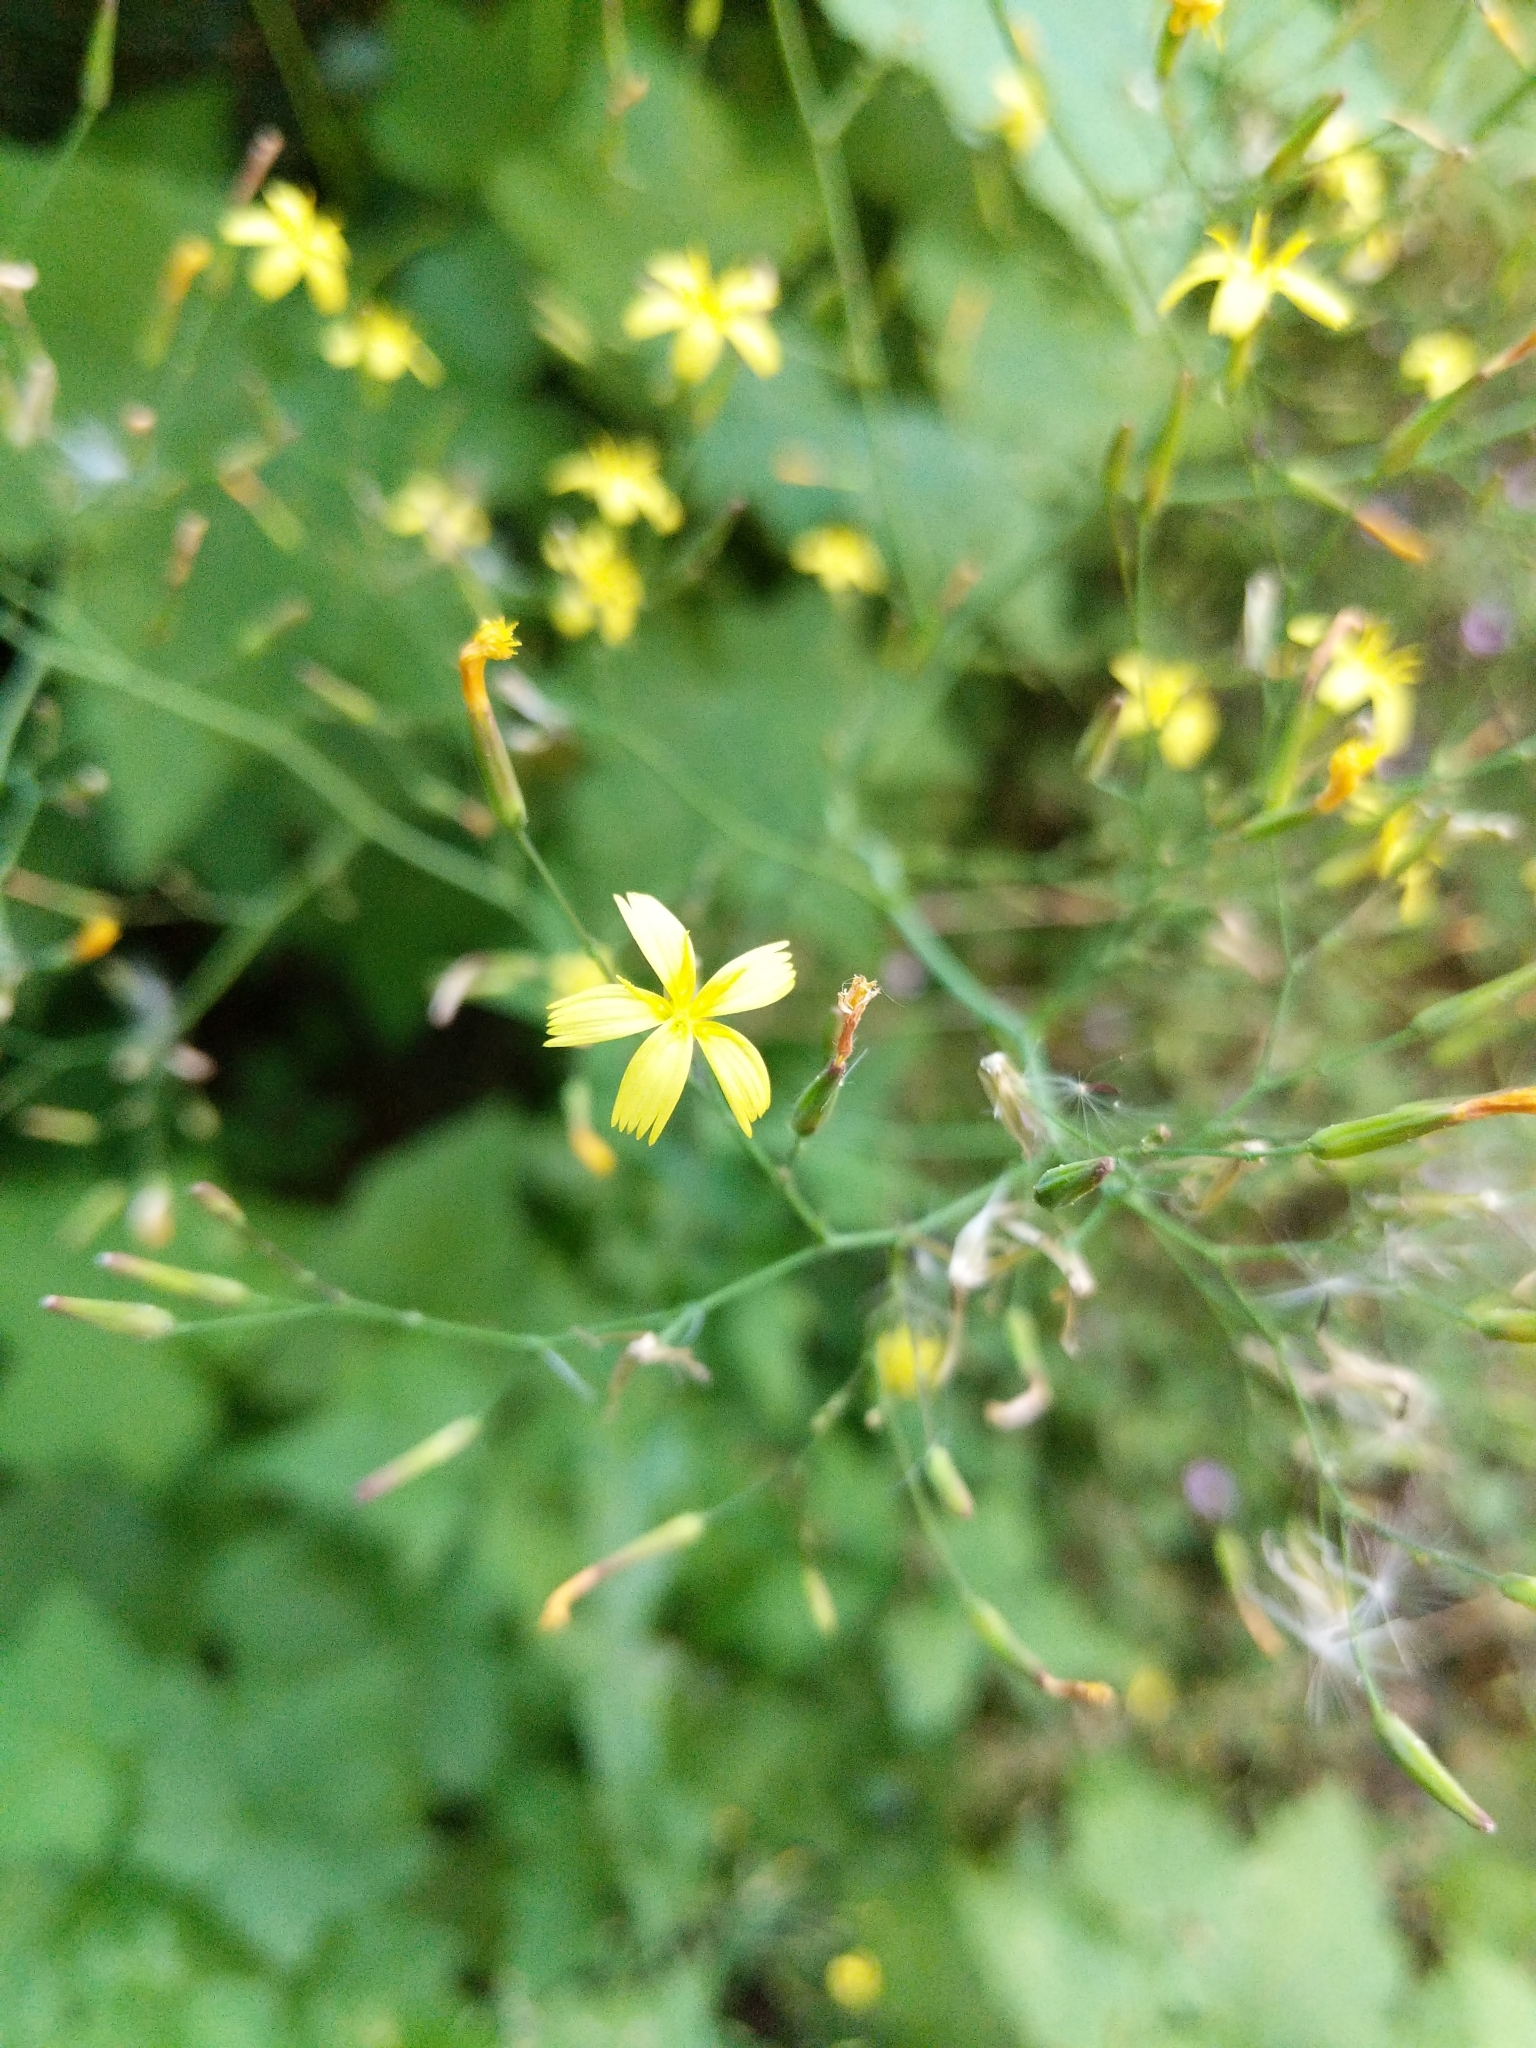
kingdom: Plantae
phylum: Tracheophyta
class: Magnoliopsida
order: Asterales
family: Asteraceae
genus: Mycelis
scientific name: Mycelis muralis
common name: Wall lettuce
